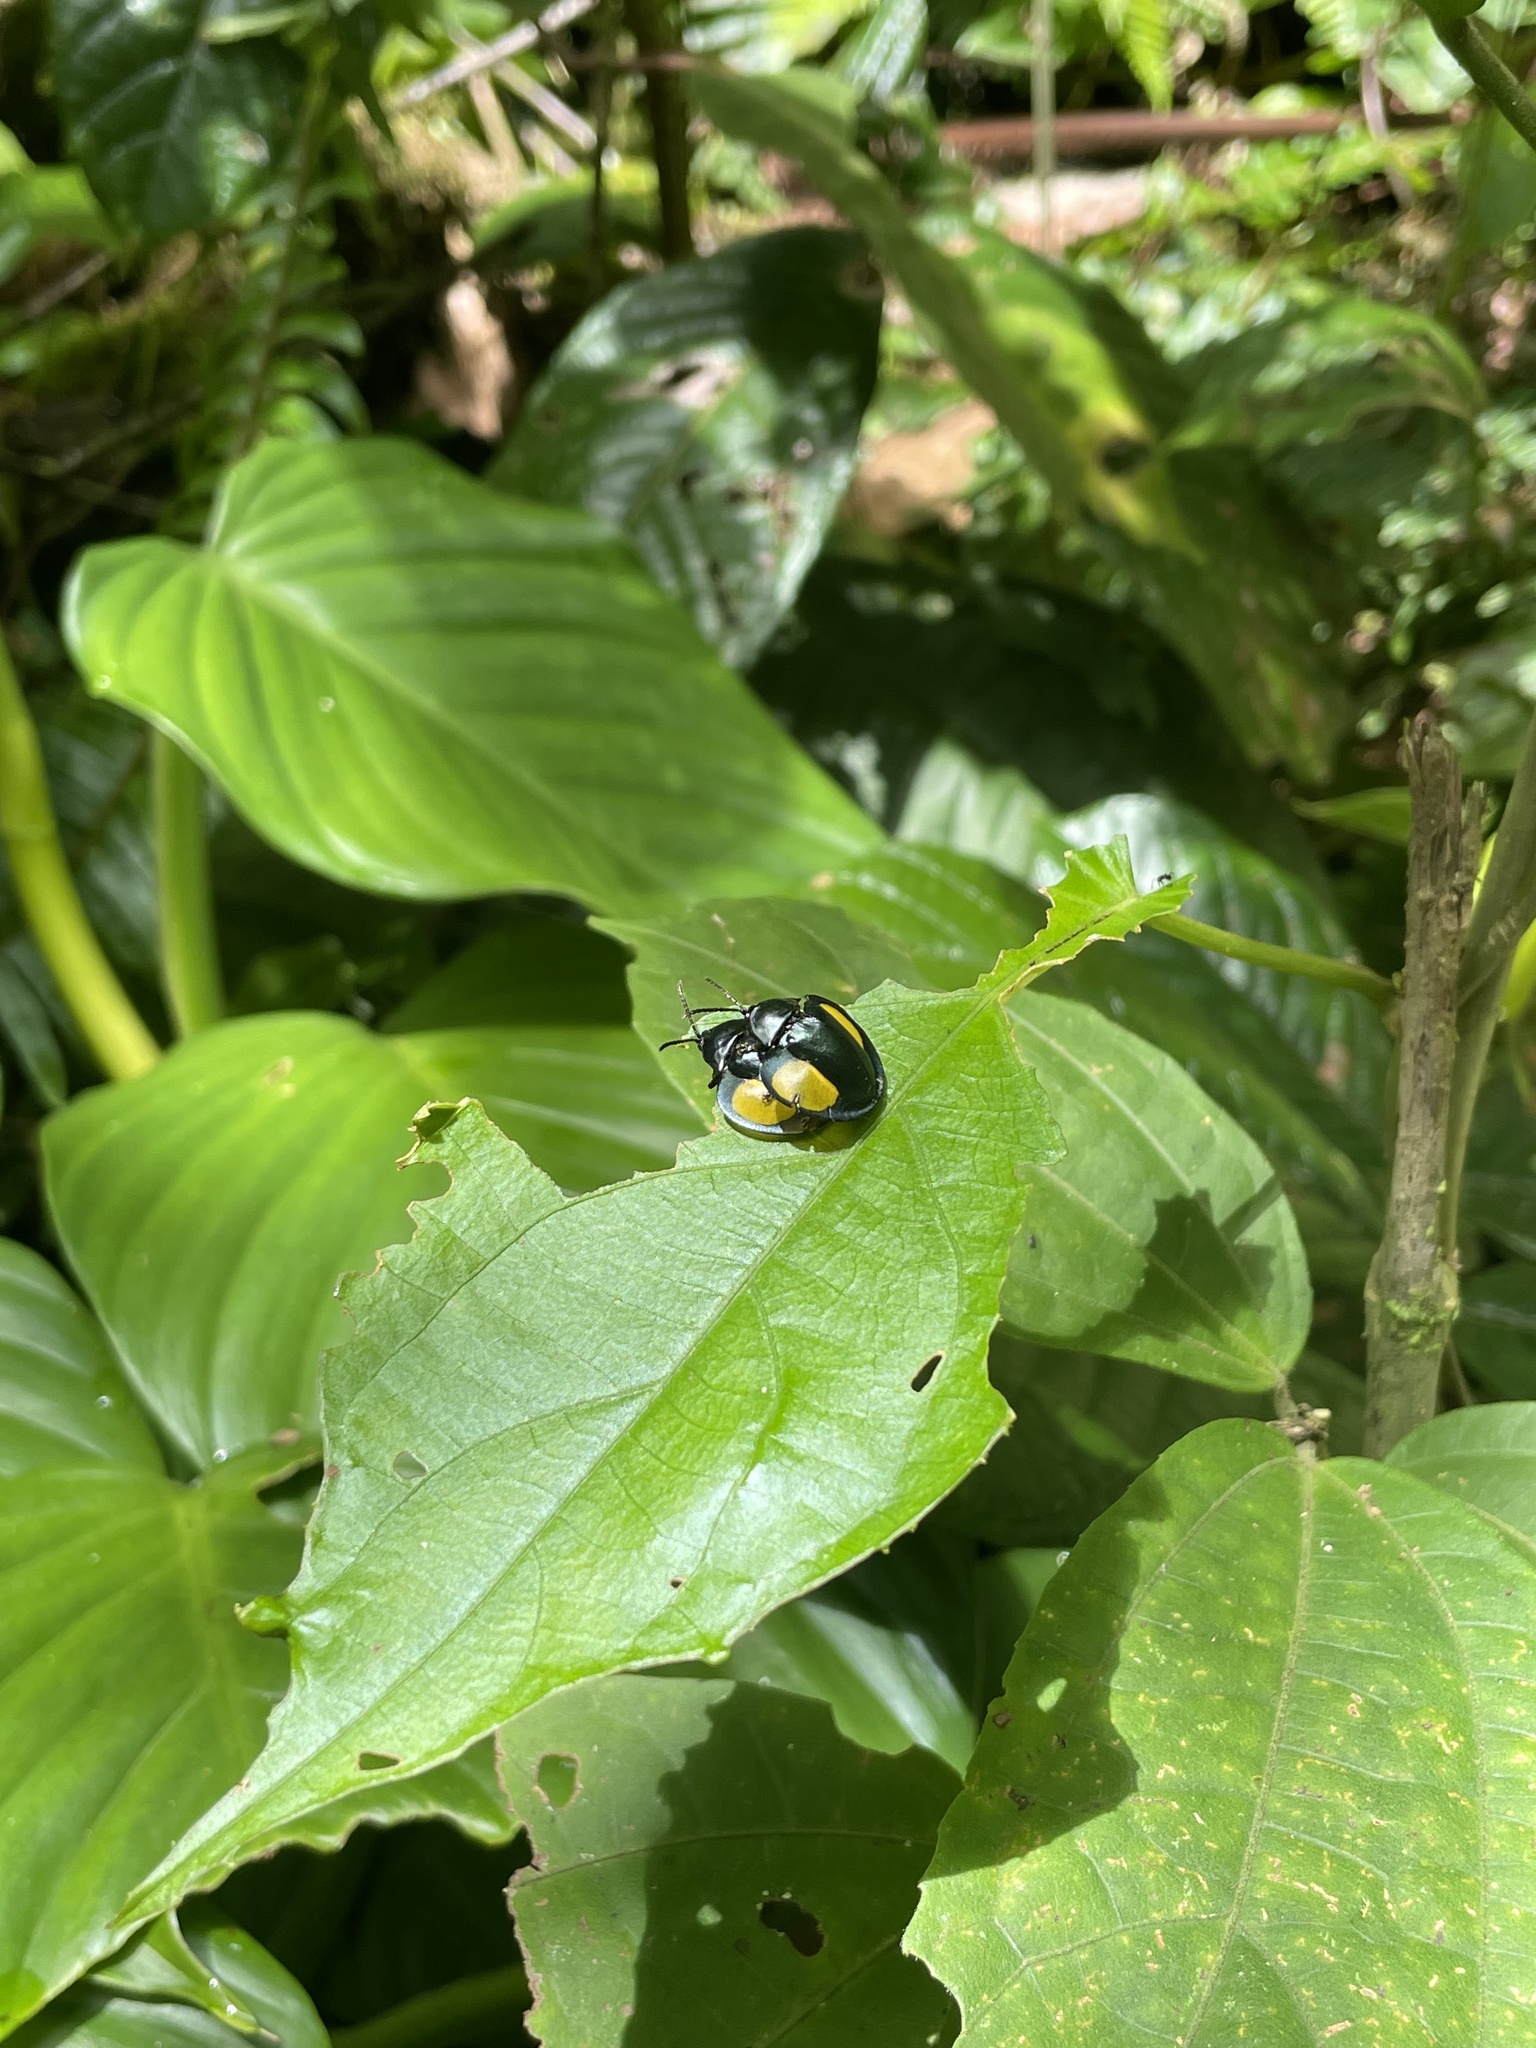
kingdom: Animalia
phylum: Arthropoda
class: Insecta
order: Coleoptera
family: Chrysomelidae
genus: Omaspides
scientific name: Omaspides convexicollis
